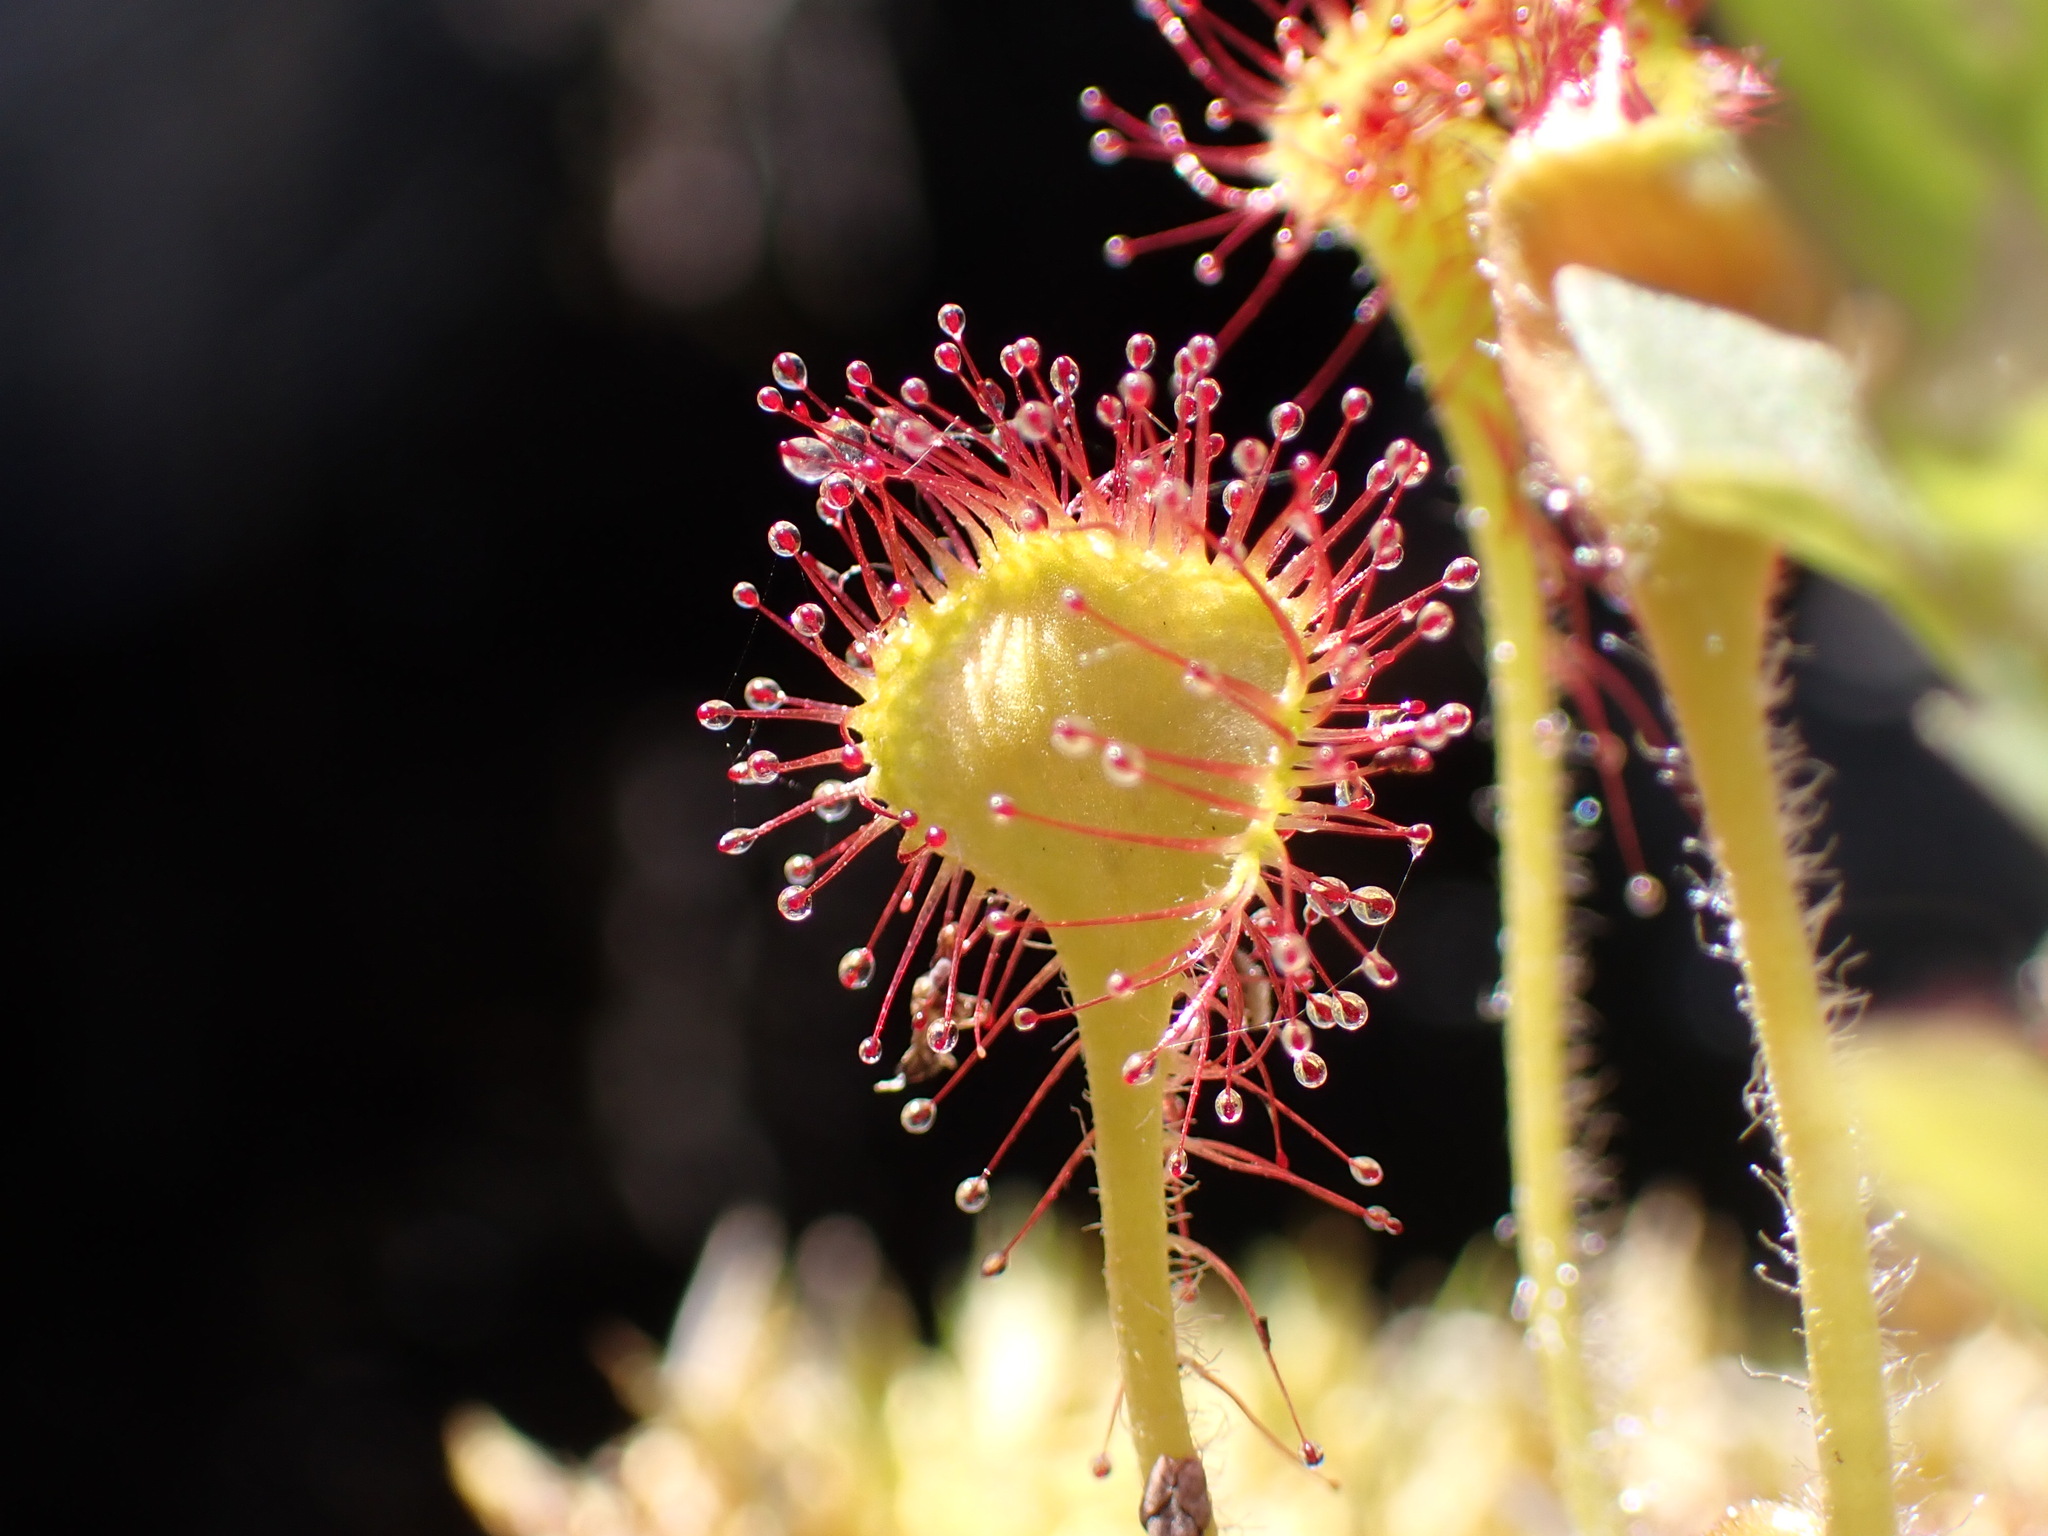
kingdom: Plantae
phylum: Tracheophyta
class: Magnoliopsida
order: Caryophyllales
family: Droseraceae
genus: Drosera
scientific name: Drosera rotundifolia
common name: Round-leaved sundew
